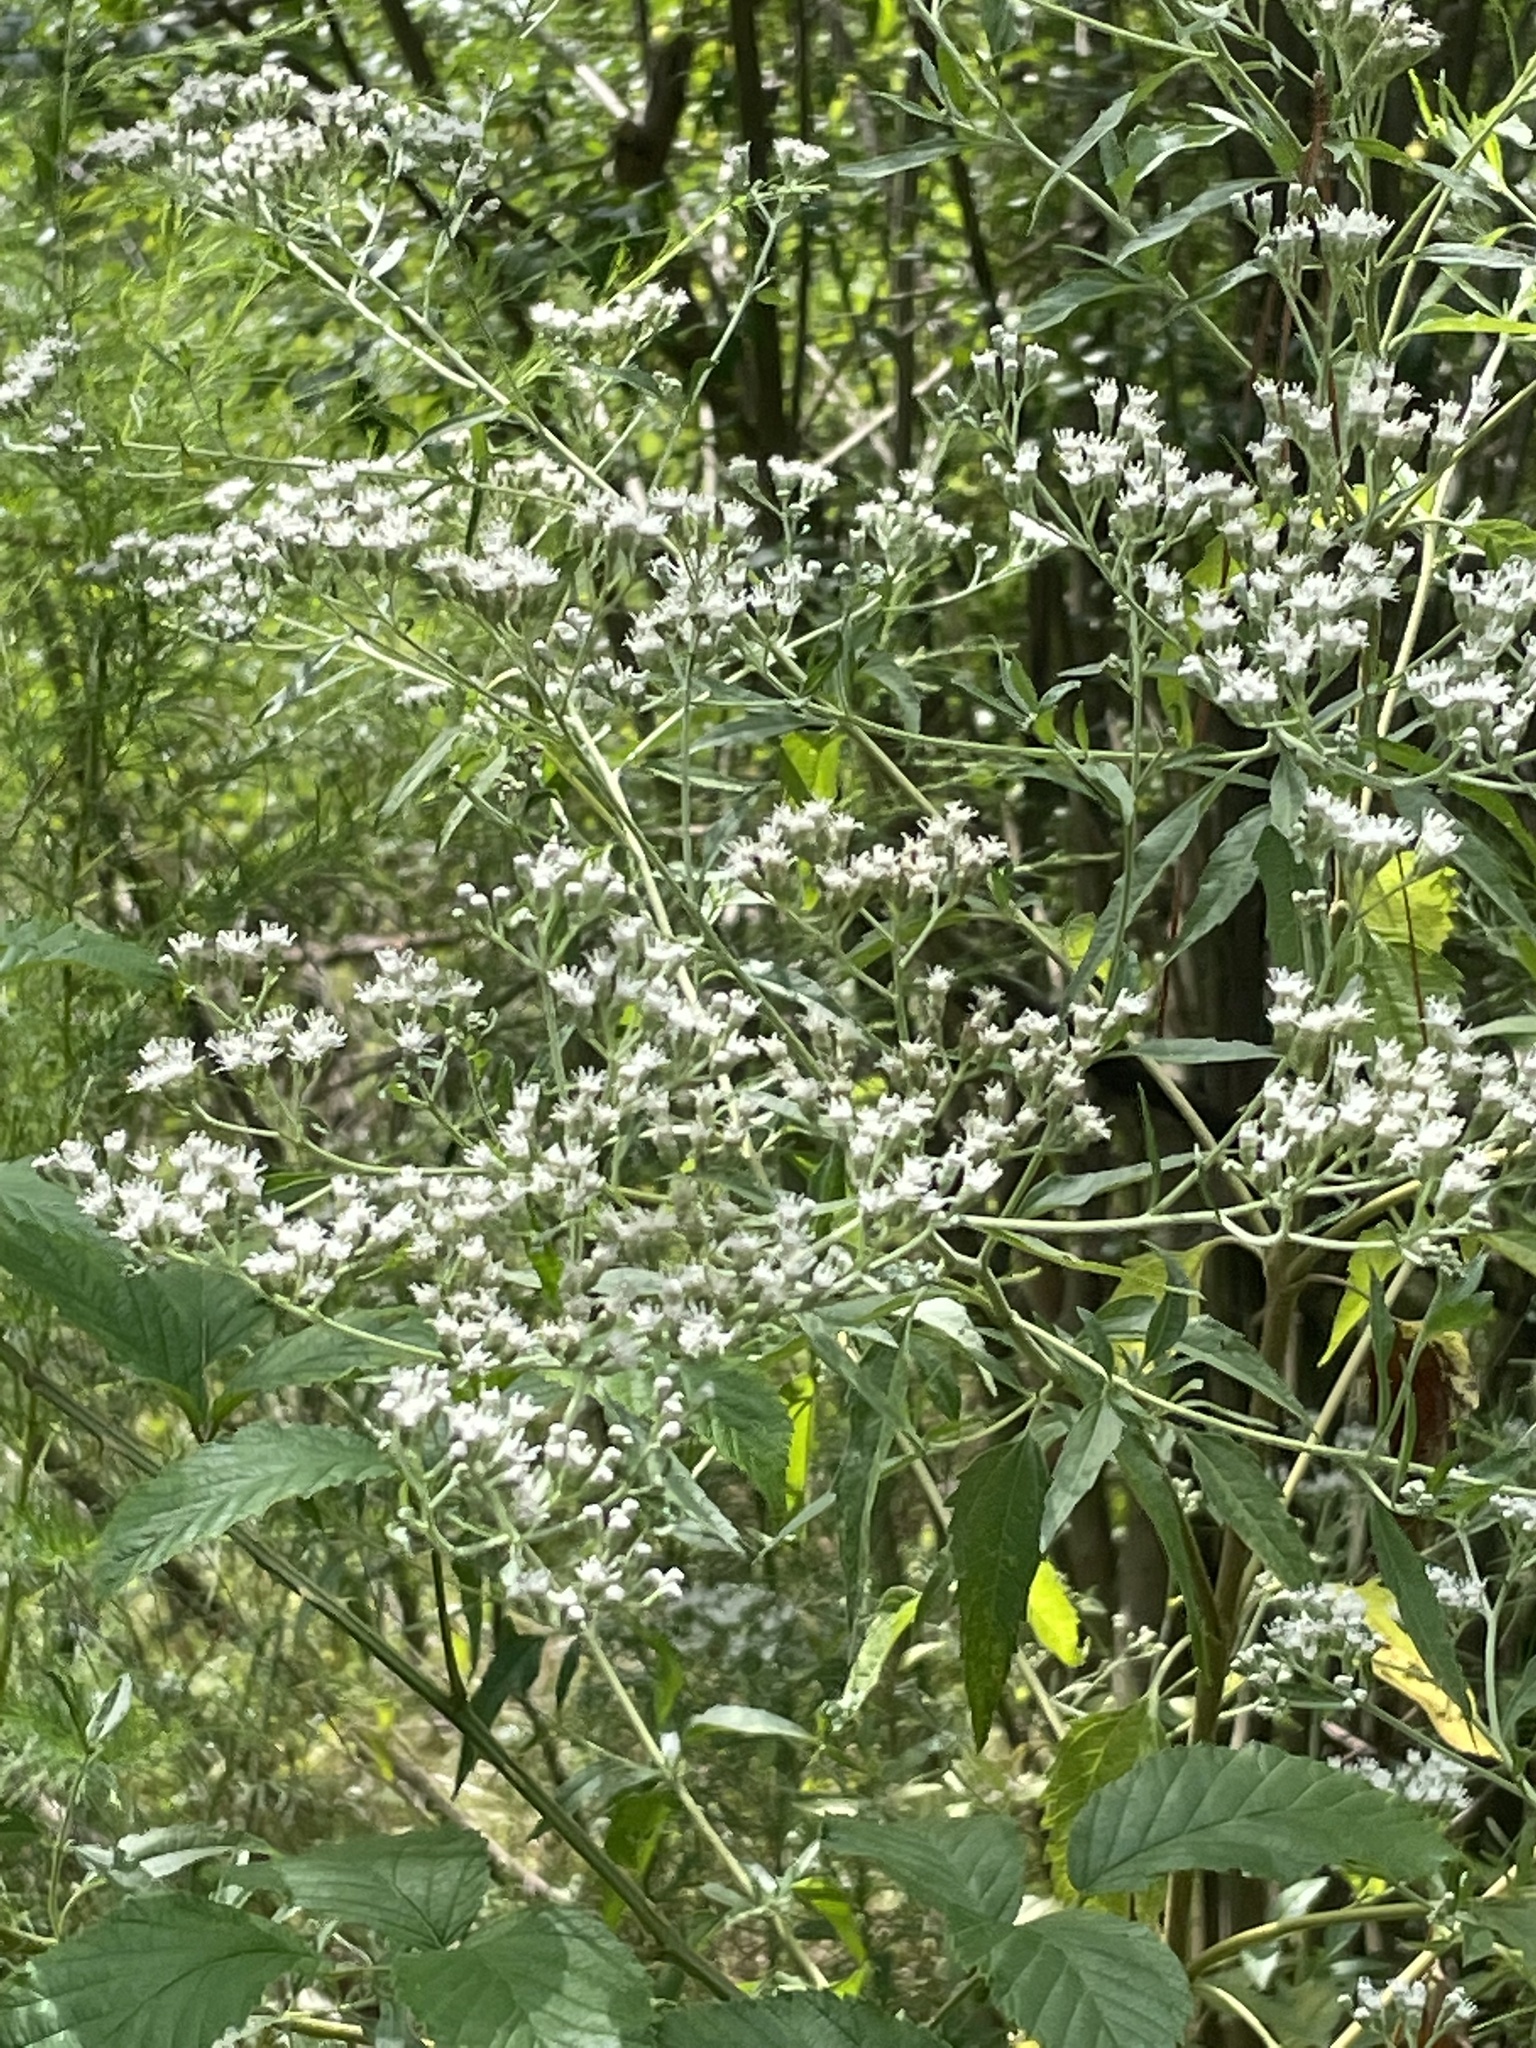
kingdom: Plantae
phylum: Tracheophyta
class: Magnoliopsida
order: Asterales
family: Asteraceae
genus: Eupatorium
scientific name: Eupatorium serotinum
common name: Late boneset
